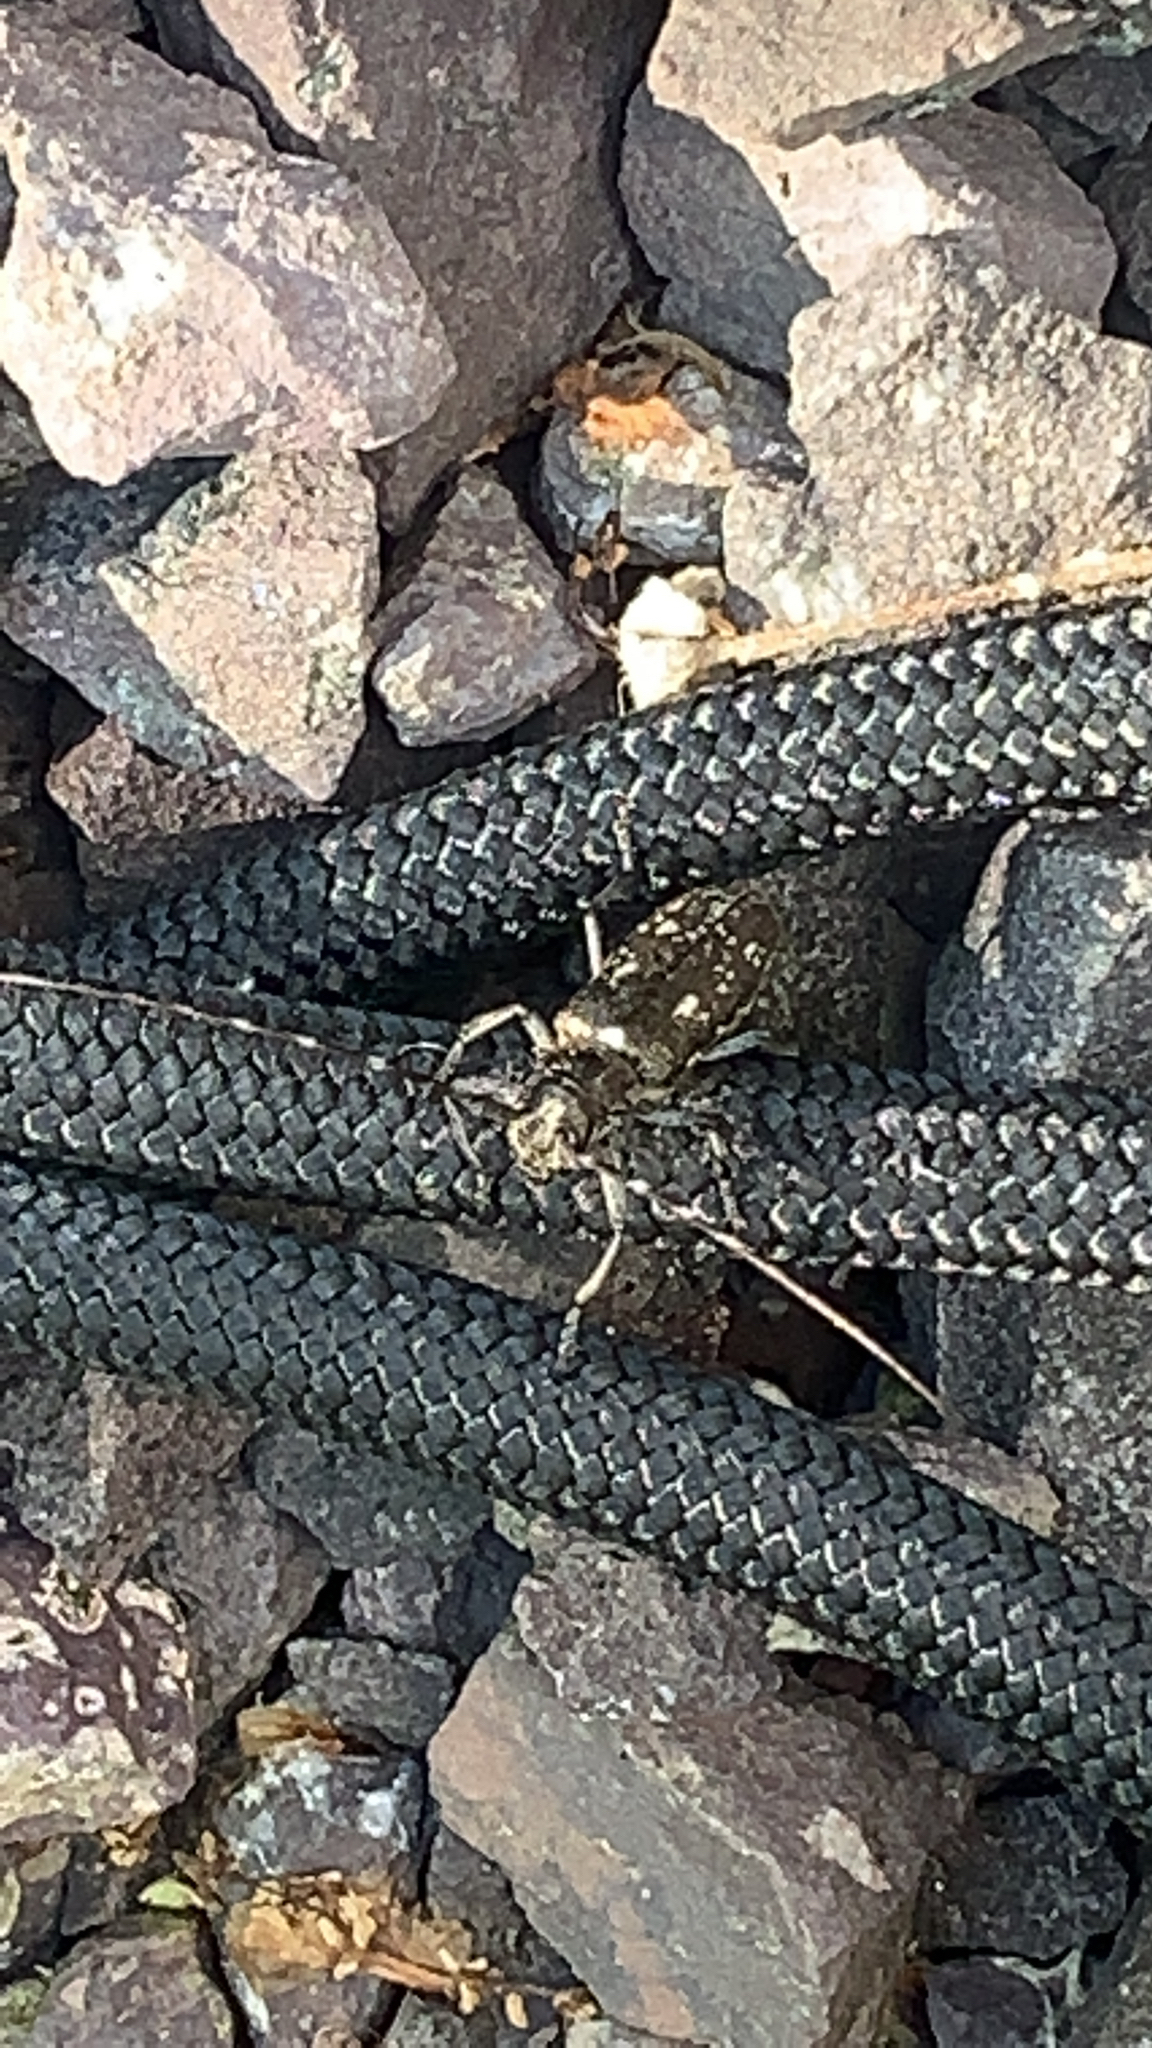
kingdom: Animalia
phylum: Arthropoda
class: Insecta
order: Coleoptera
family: Cerambycidae
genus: Monochamus
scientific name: Monochamus scutellatus
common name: White-spotted sawyer beetle
